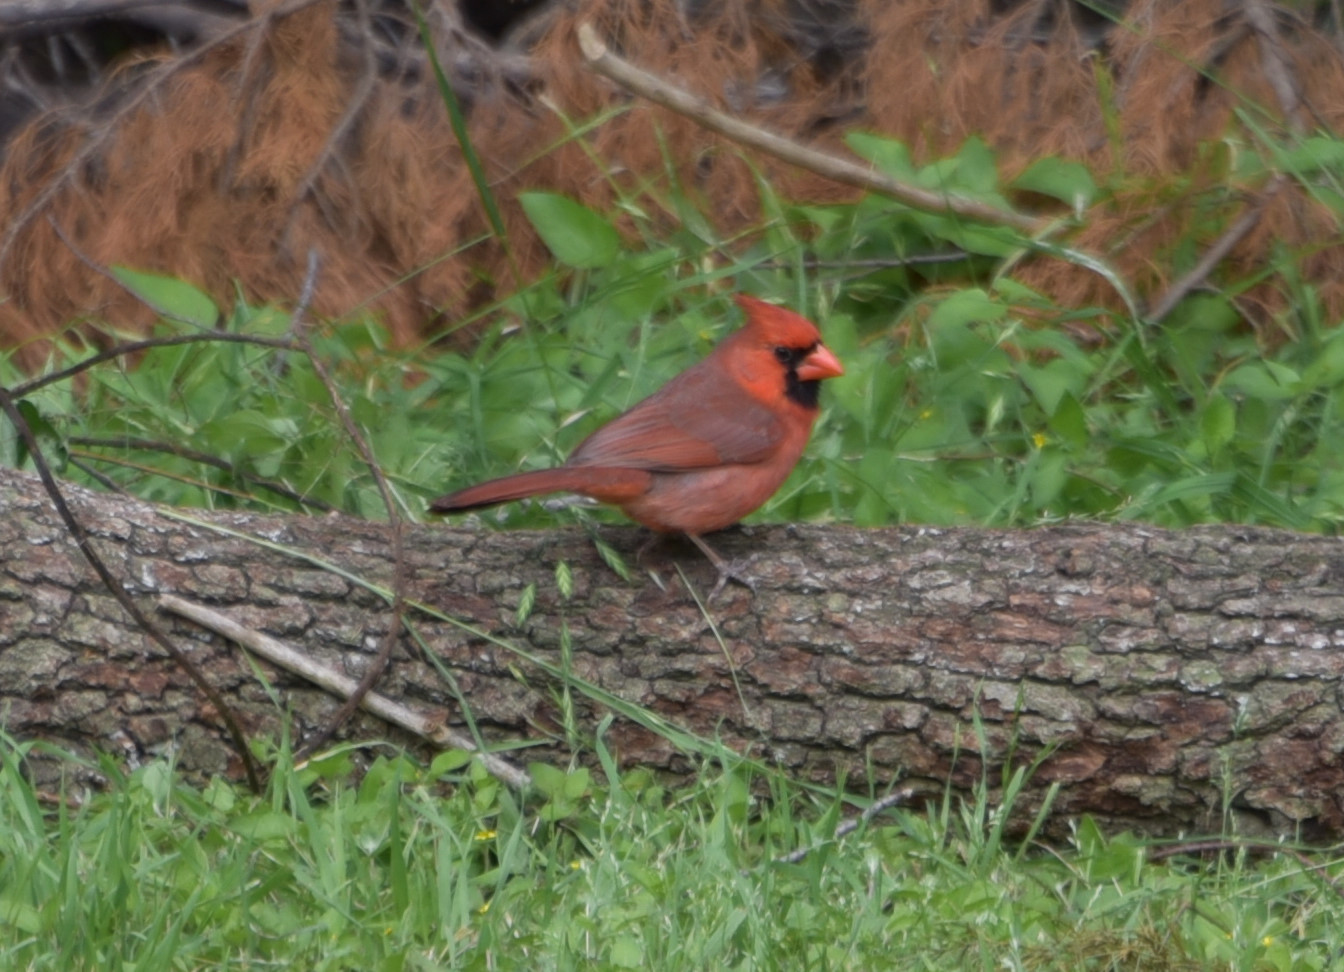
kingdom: Animalia
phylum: Chordata
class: Aves
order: Passeriformes
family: Cardinalidae
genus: Cardinalis
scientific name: Cardinalis cardinalis
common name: Northern cardinal
